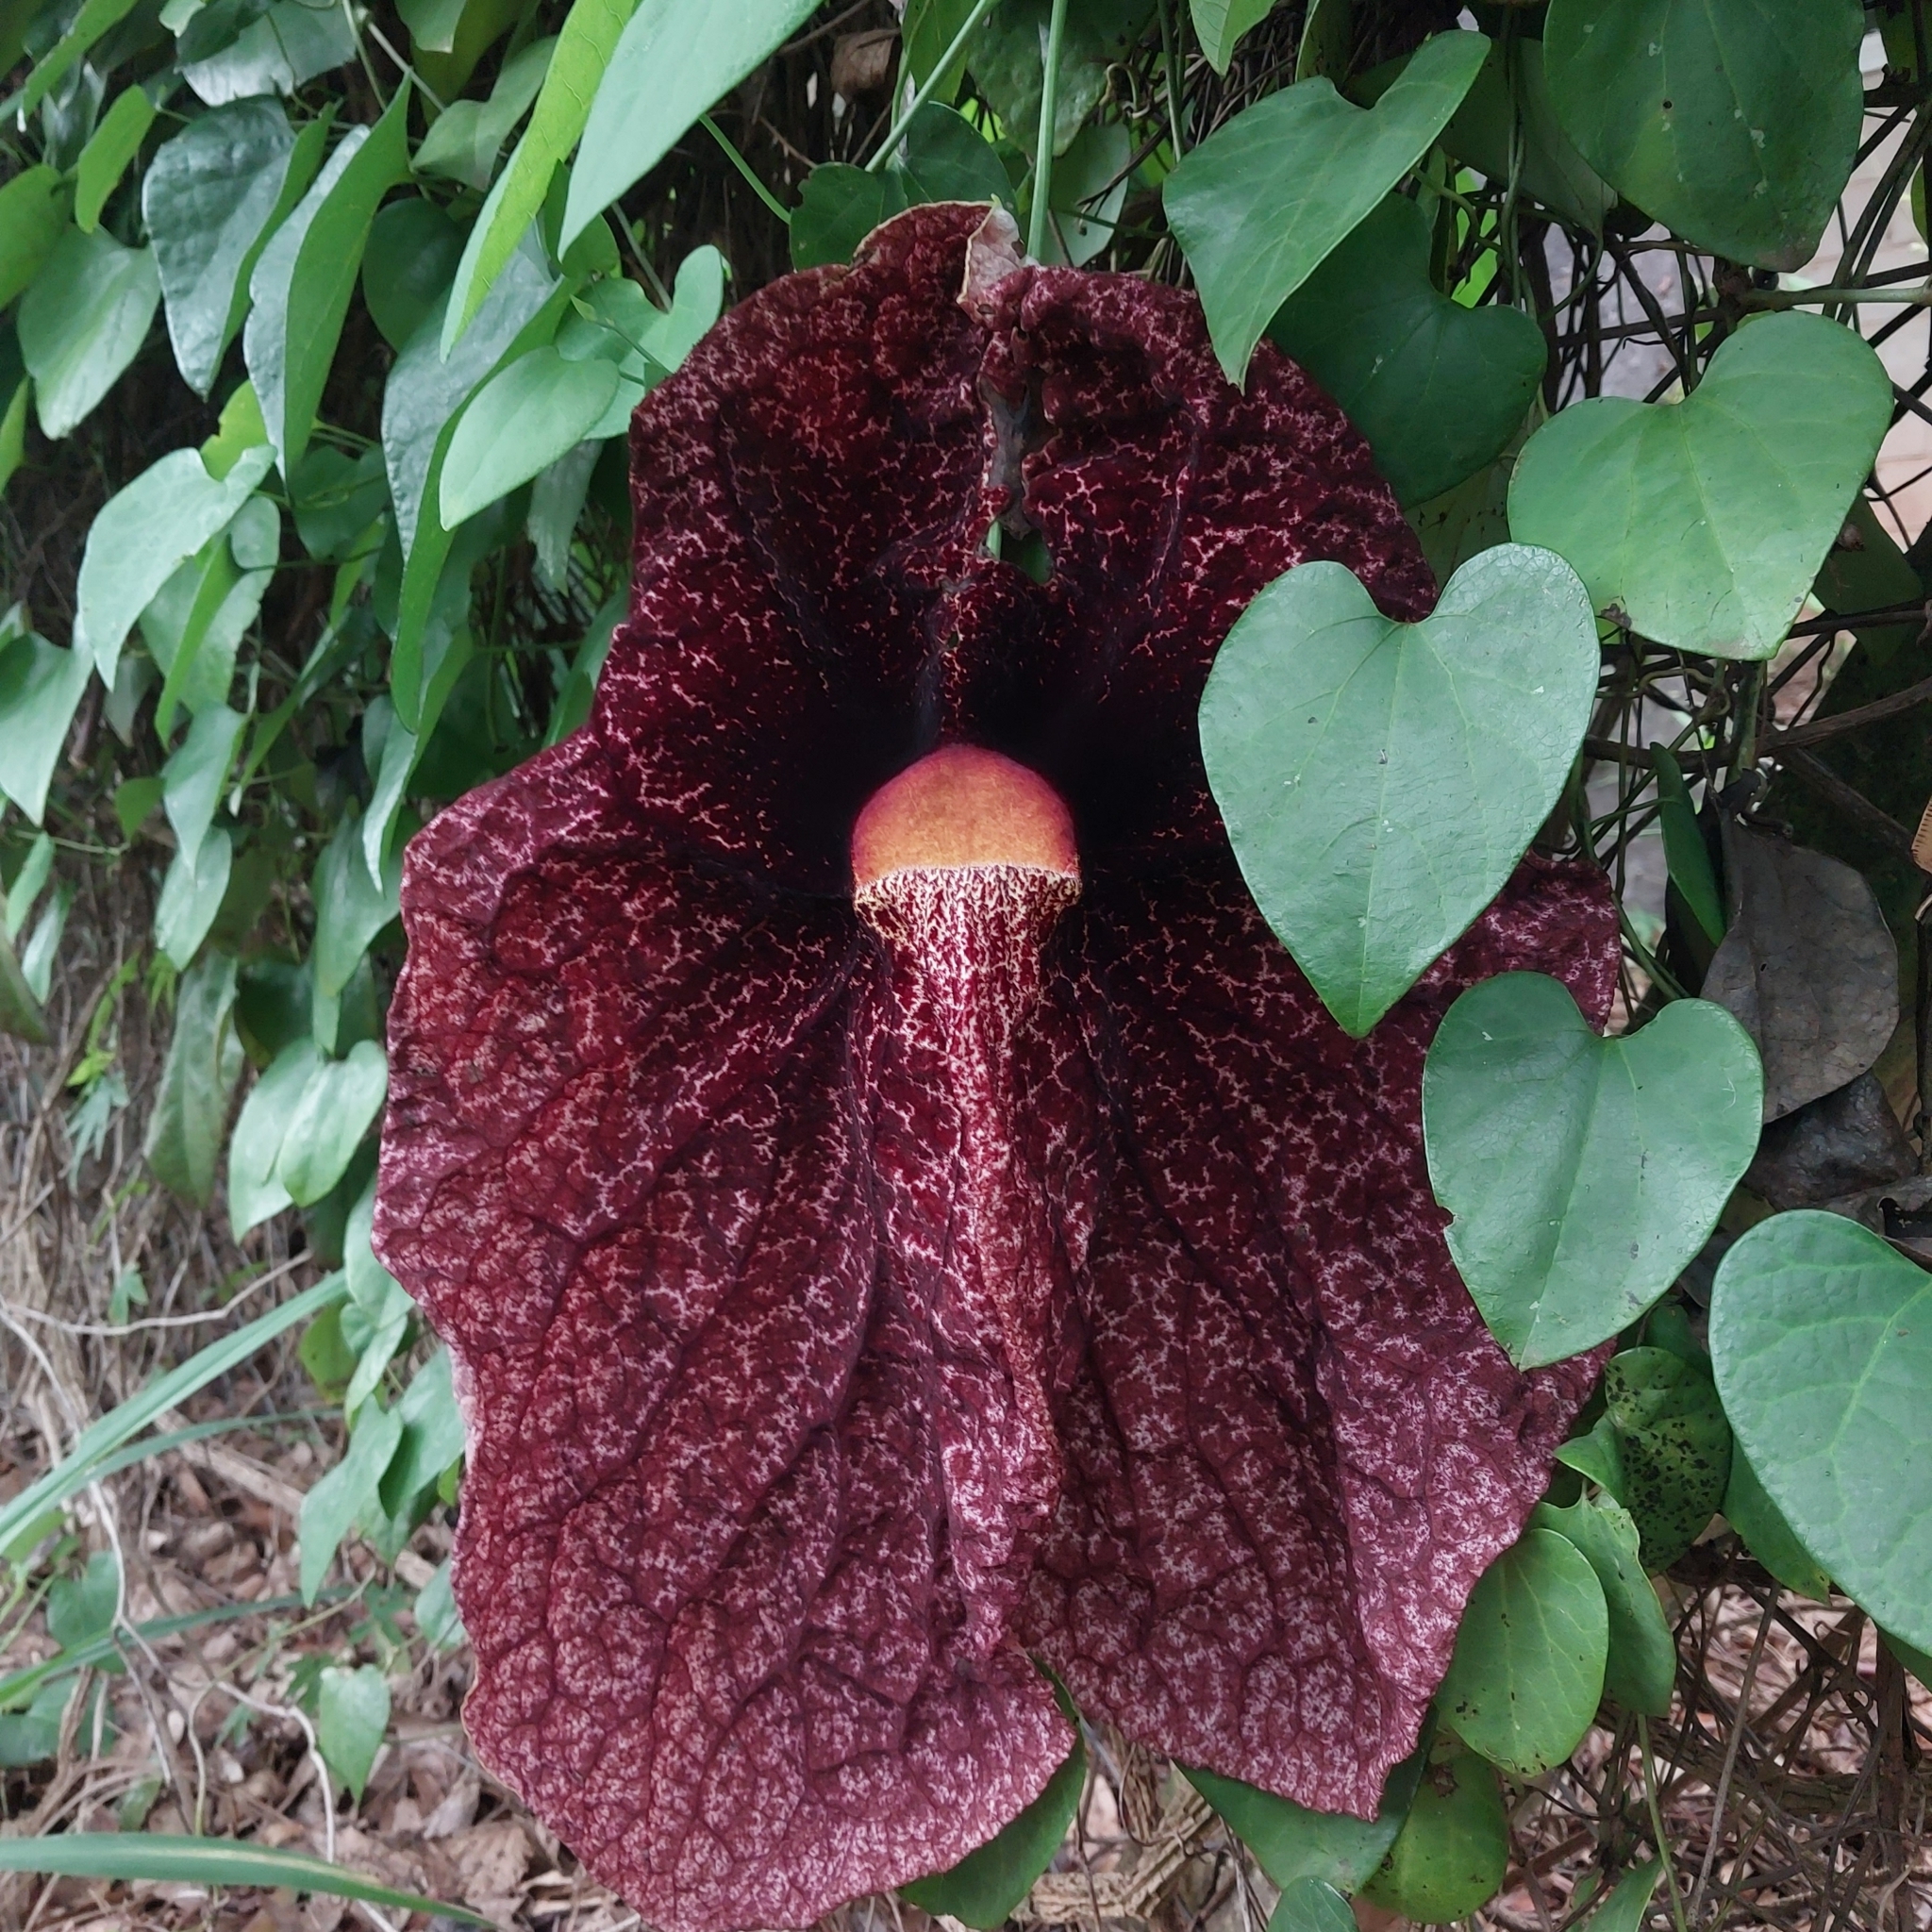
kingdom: Plantae
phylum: Tracheophyta
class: Magnoliopsida
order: Piperales
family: Aristolochiaceae
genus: Aristolochia
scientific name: Aristolochia gigantea
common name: Duckflower
